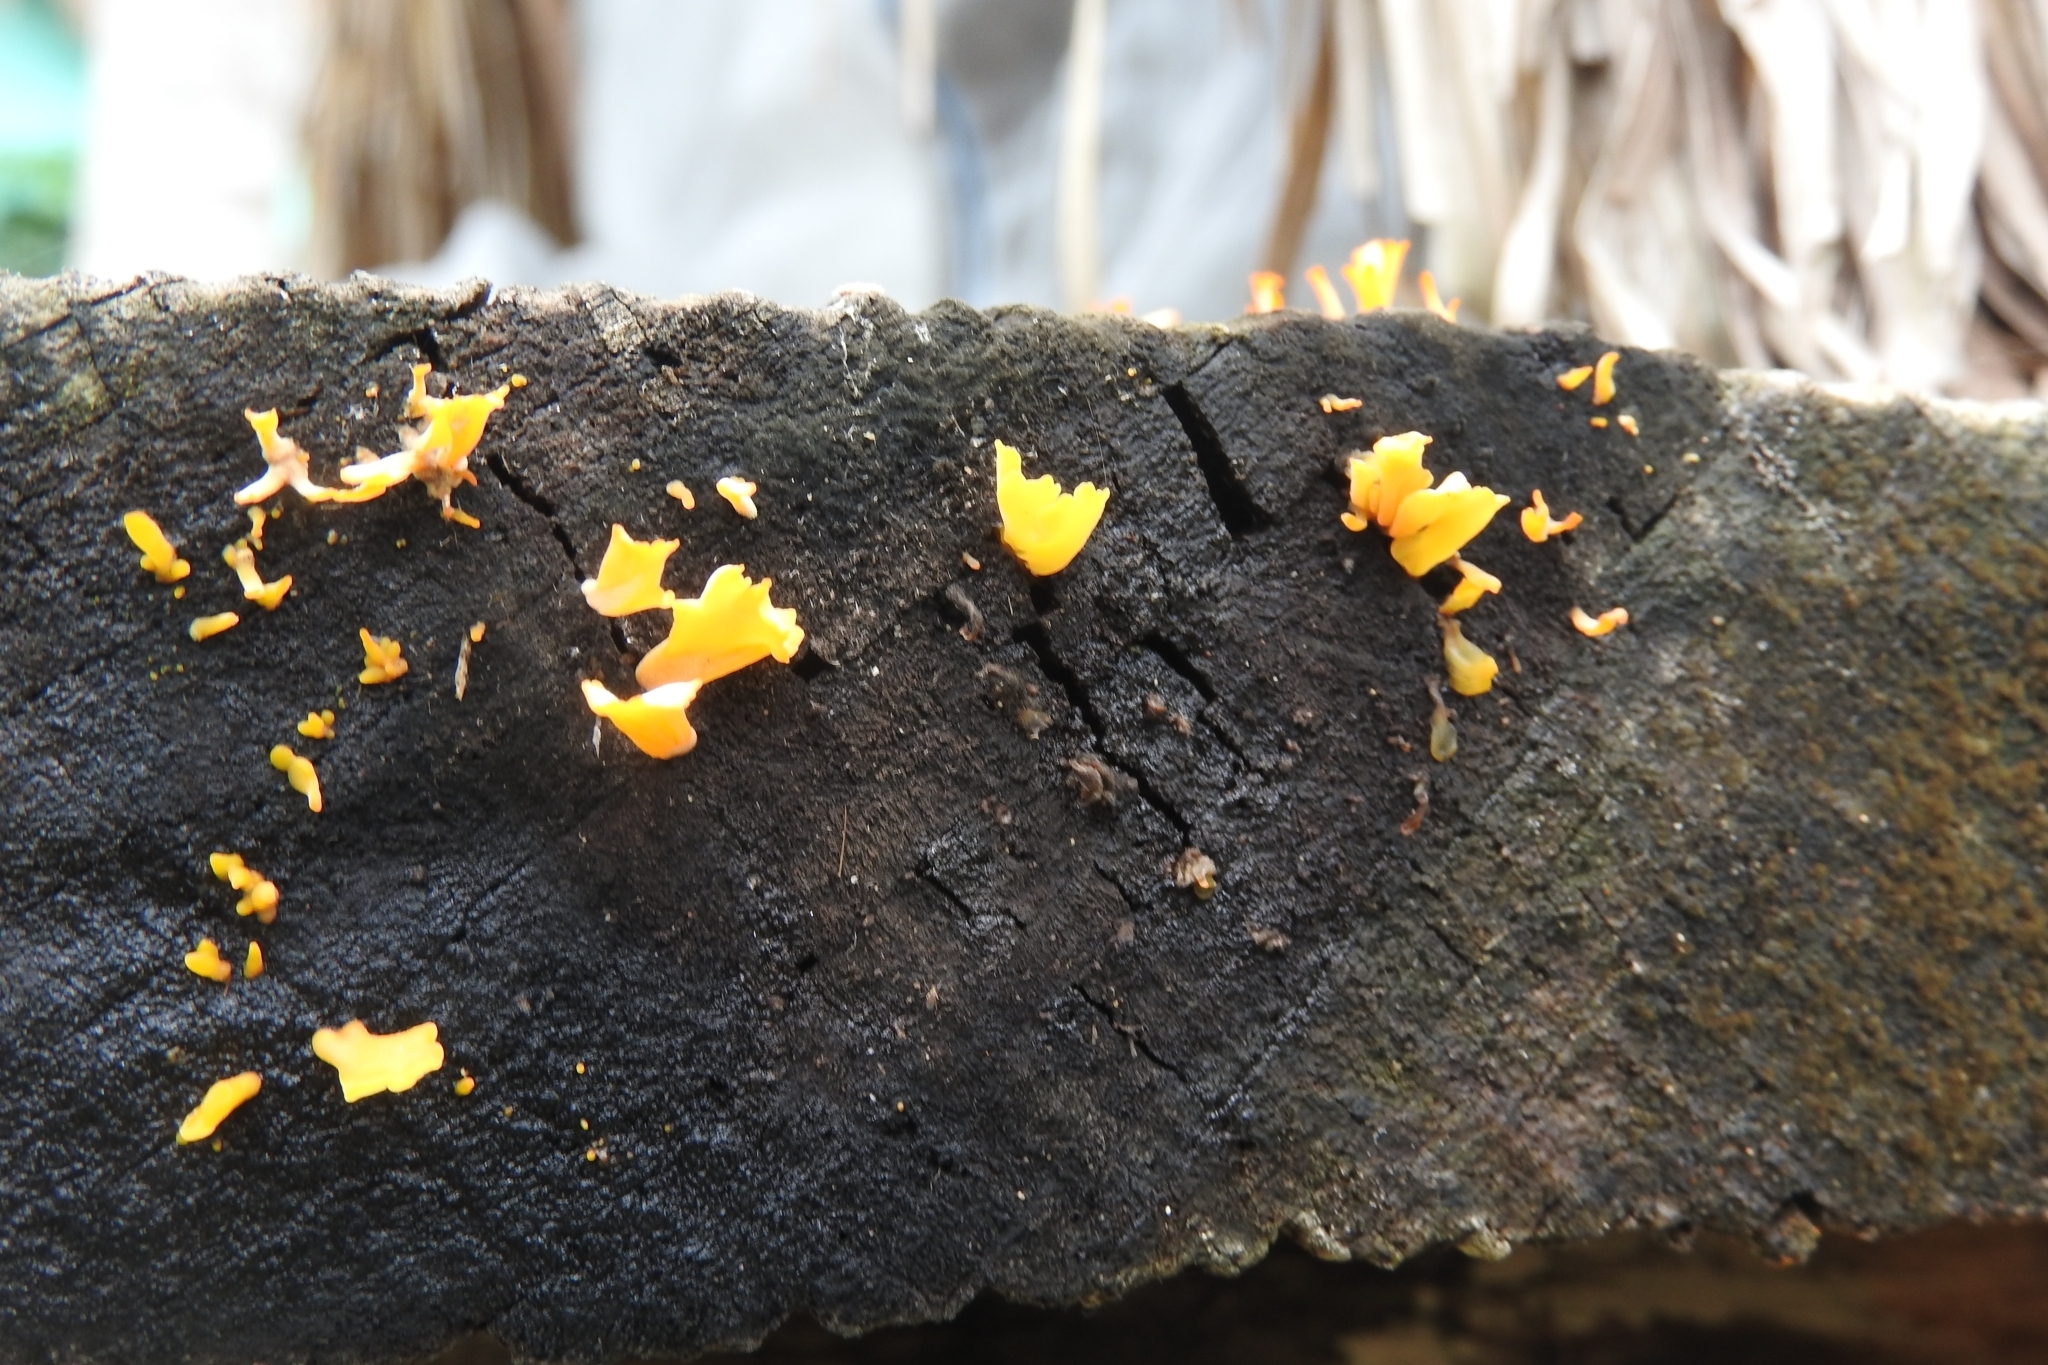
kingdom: Fungi
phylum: Basidiomycota
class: Dacrymycetes
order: Dacrymycetales
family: Dacrymycetaceae
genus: Dacrymyces
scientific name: Dacrymyces spathularius
